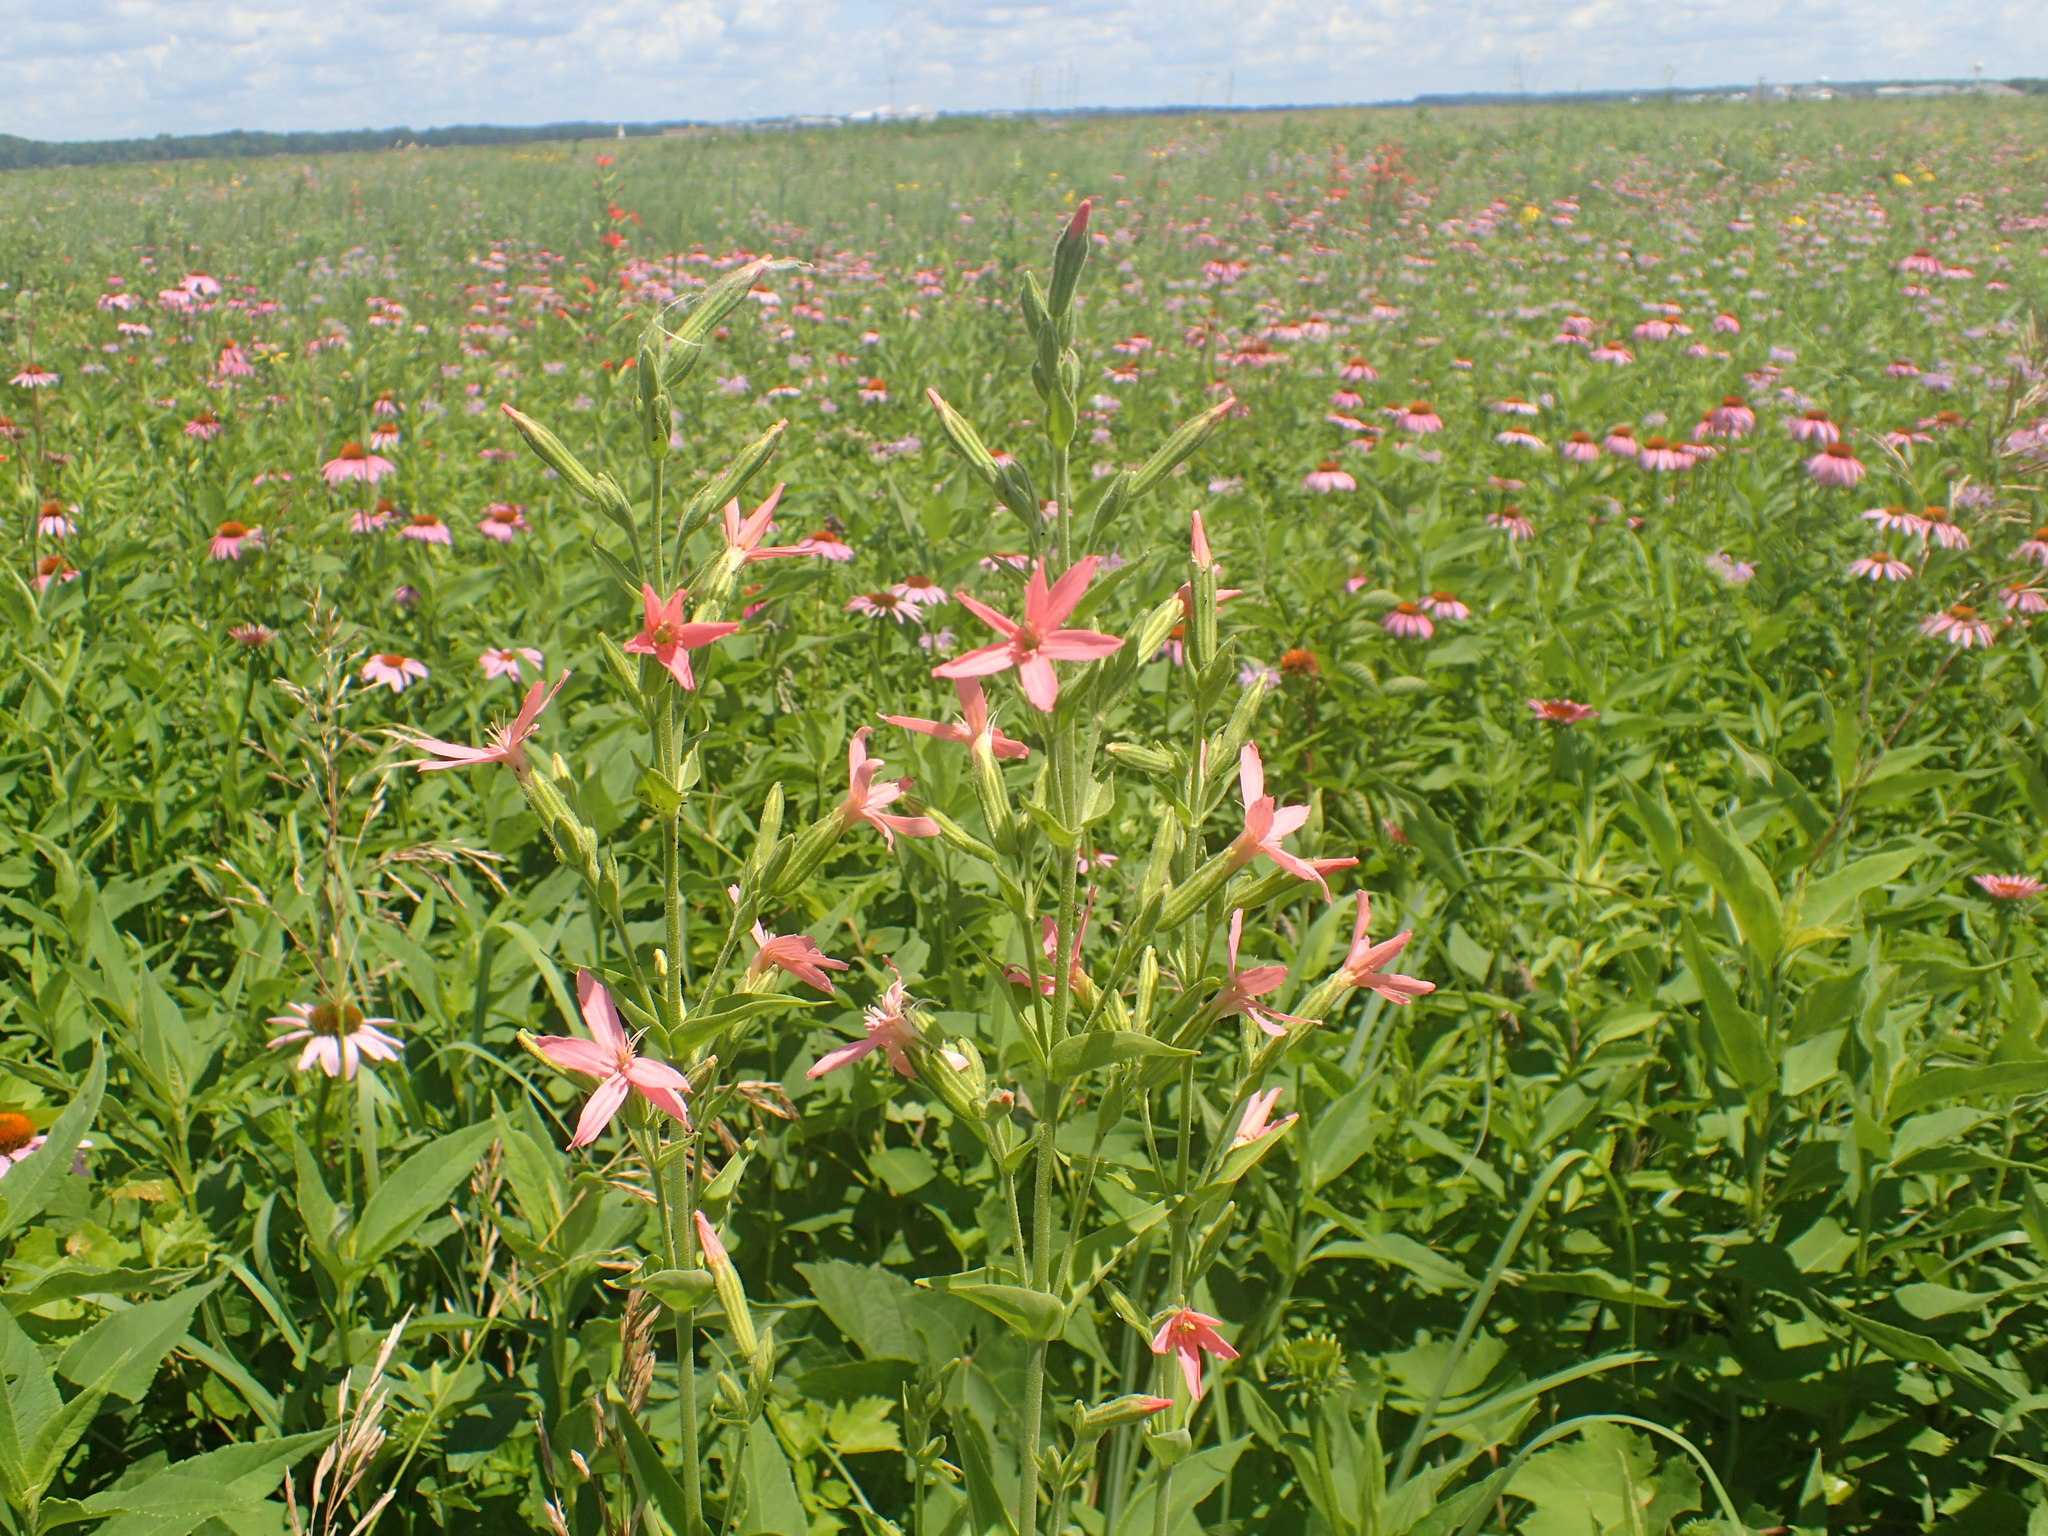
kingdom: Plantae
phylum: Tracheophyta
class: Magnoliopsida
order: Caryophyllales
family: Caryophyllaceae
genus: Silene
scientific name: Silene regia
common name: Royal catchfly
